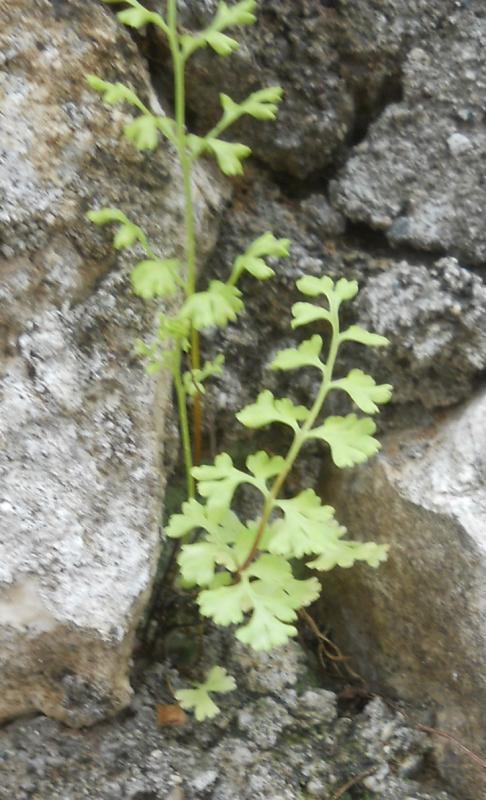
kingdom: Plantae
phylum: Tracheophyta
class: Polypodiopsida
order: Polypodiales
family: Pteridaceae
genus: Anogramma
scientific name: Anogramma leptophylla
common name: Jersey fern
